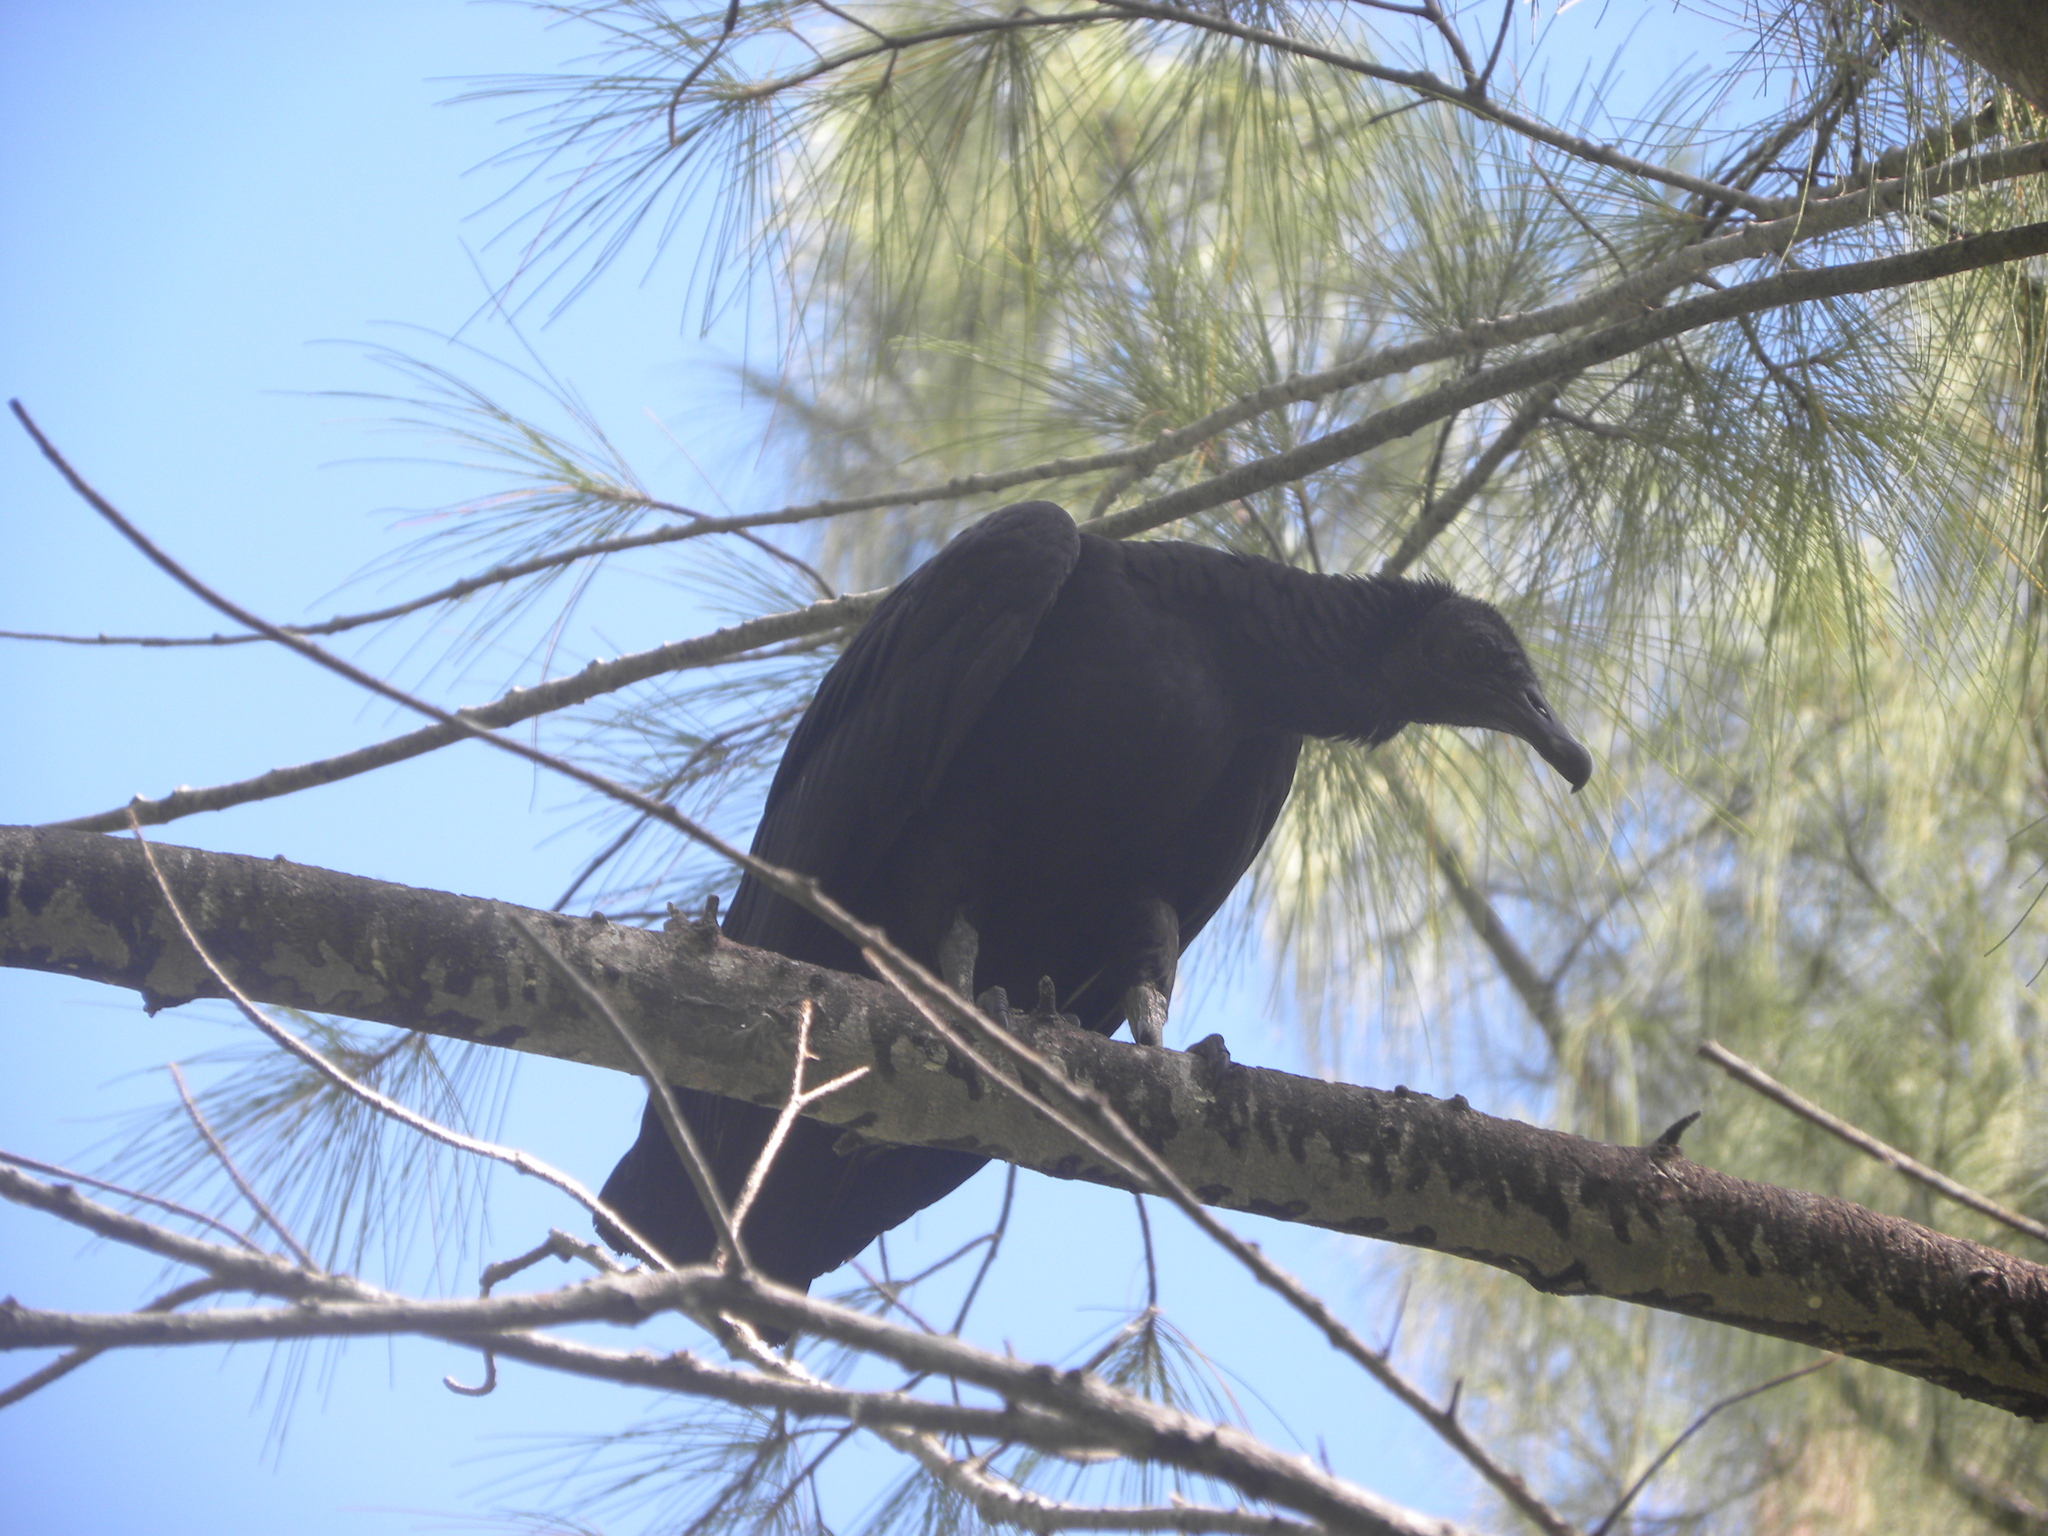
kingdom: Animalia
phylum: Chordata
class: Aves
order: Accipitriformes
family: Cathartidae
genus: Coragyps
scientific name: Coragyps atratus
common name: Black vulture
